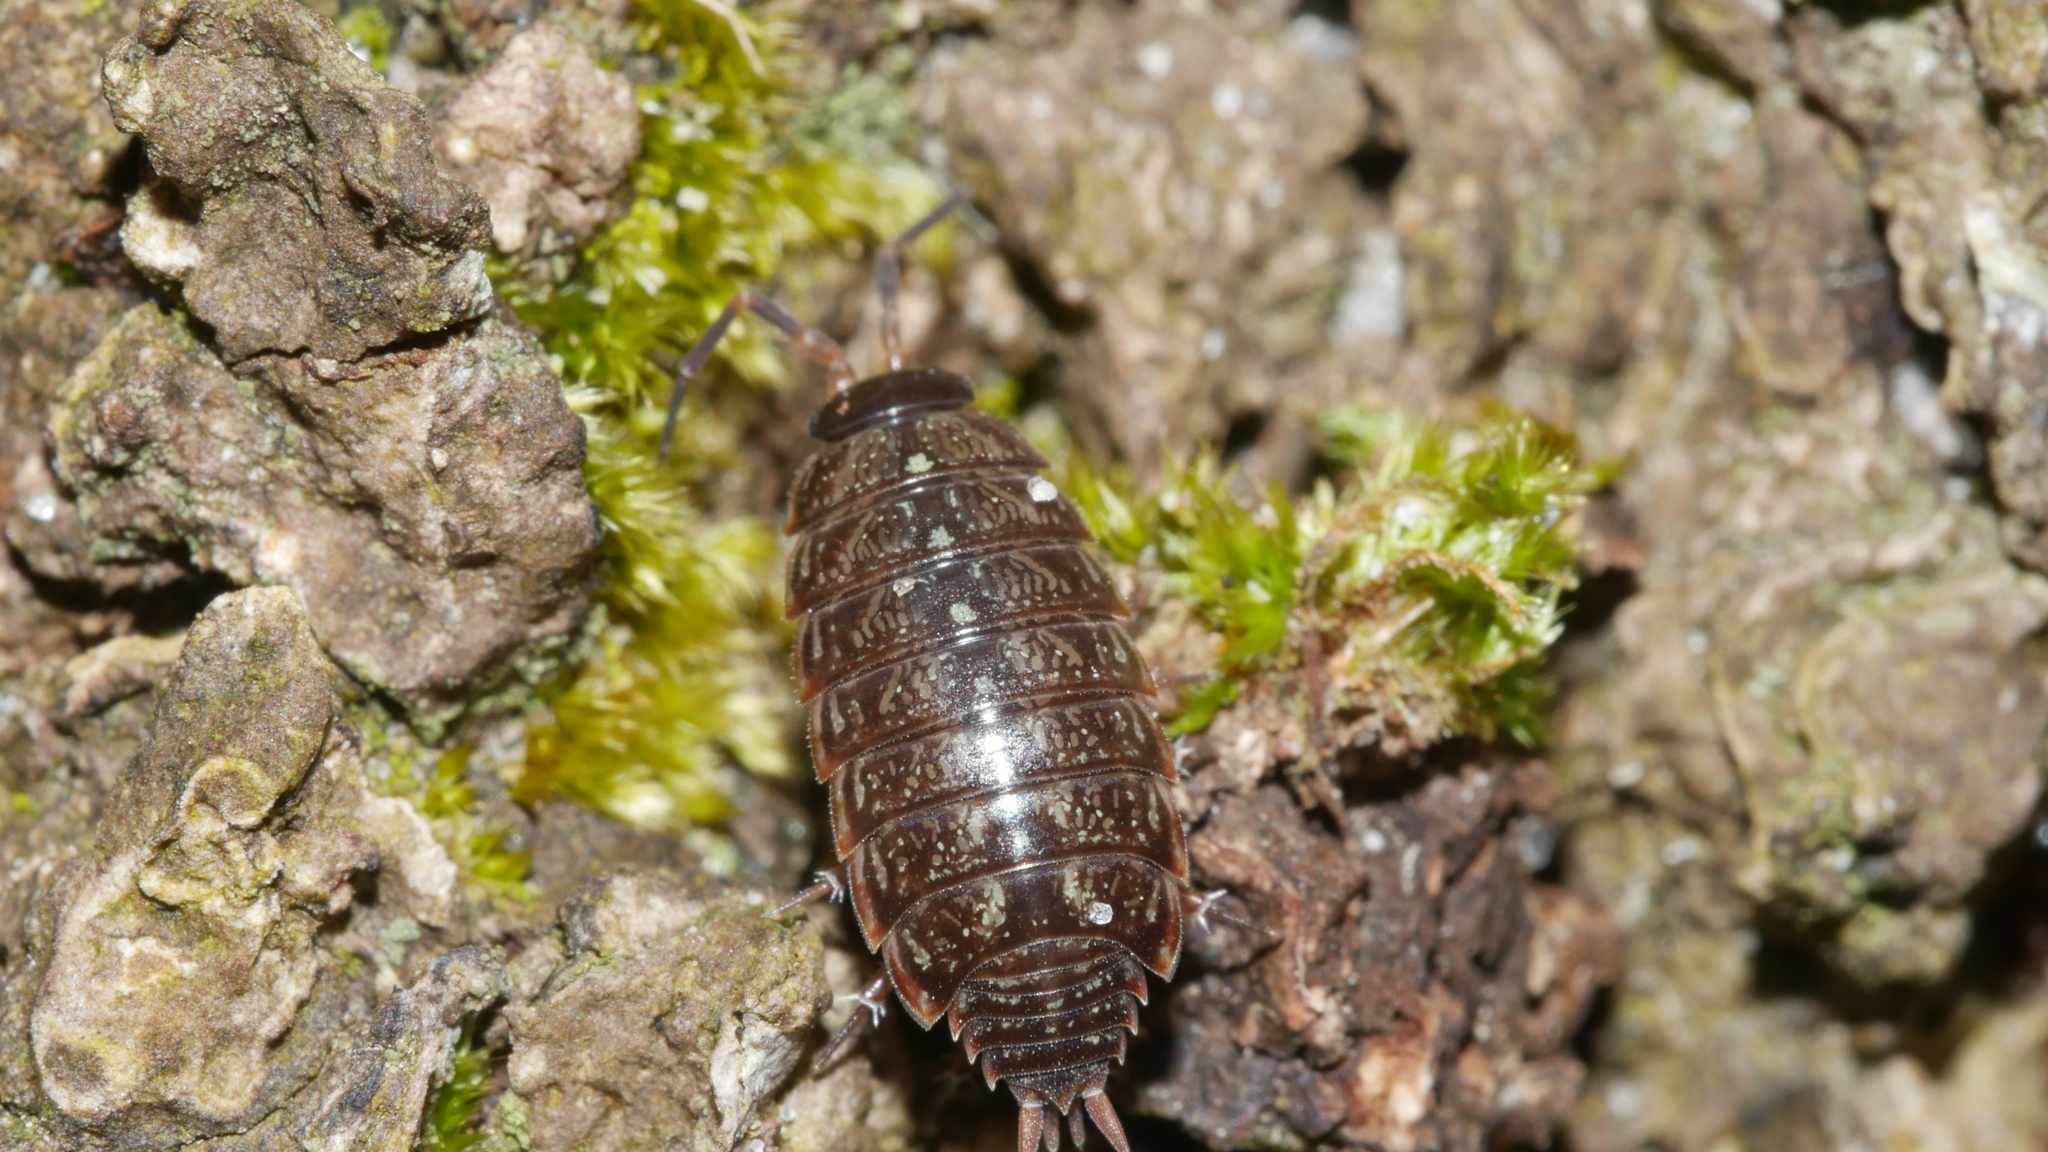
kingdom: Animalia
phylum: Arthropoda
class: Malacostraca
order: Isopoda
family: Philosciidae
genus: Philoscia
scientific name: Philoscia muscorum
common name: Common striped woodlouse
